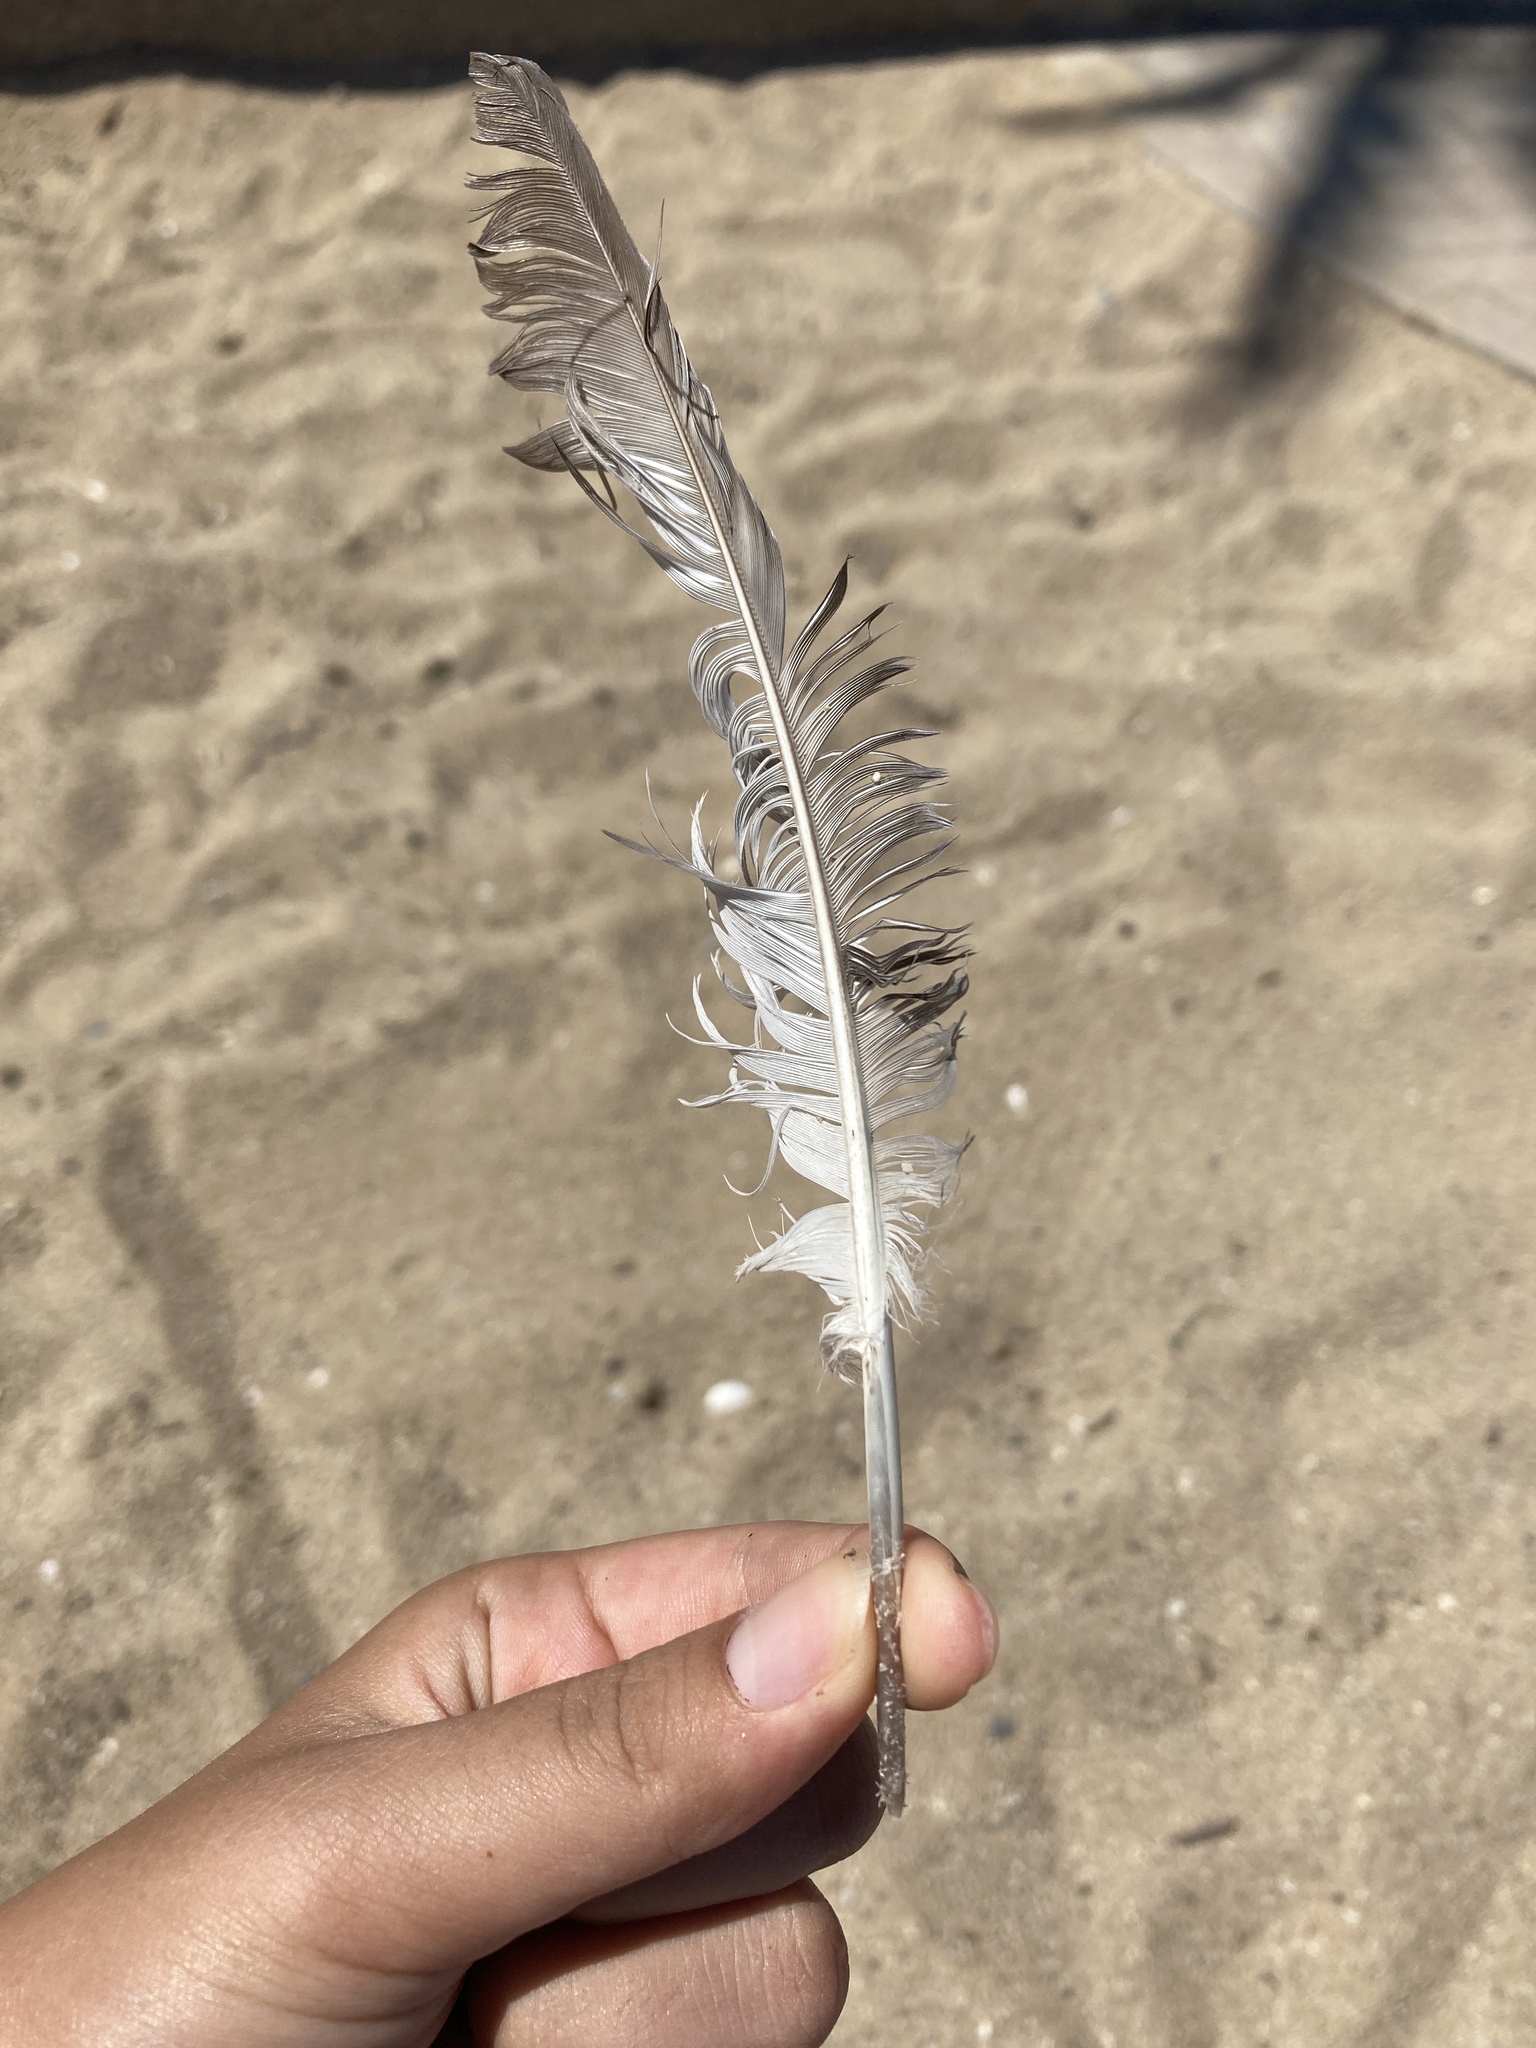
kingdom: Animalia
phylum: Chordata
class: Aves
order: Columbiformes
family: Columbidae
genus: Columba
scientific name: Columba livia
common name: Rock pigeon
